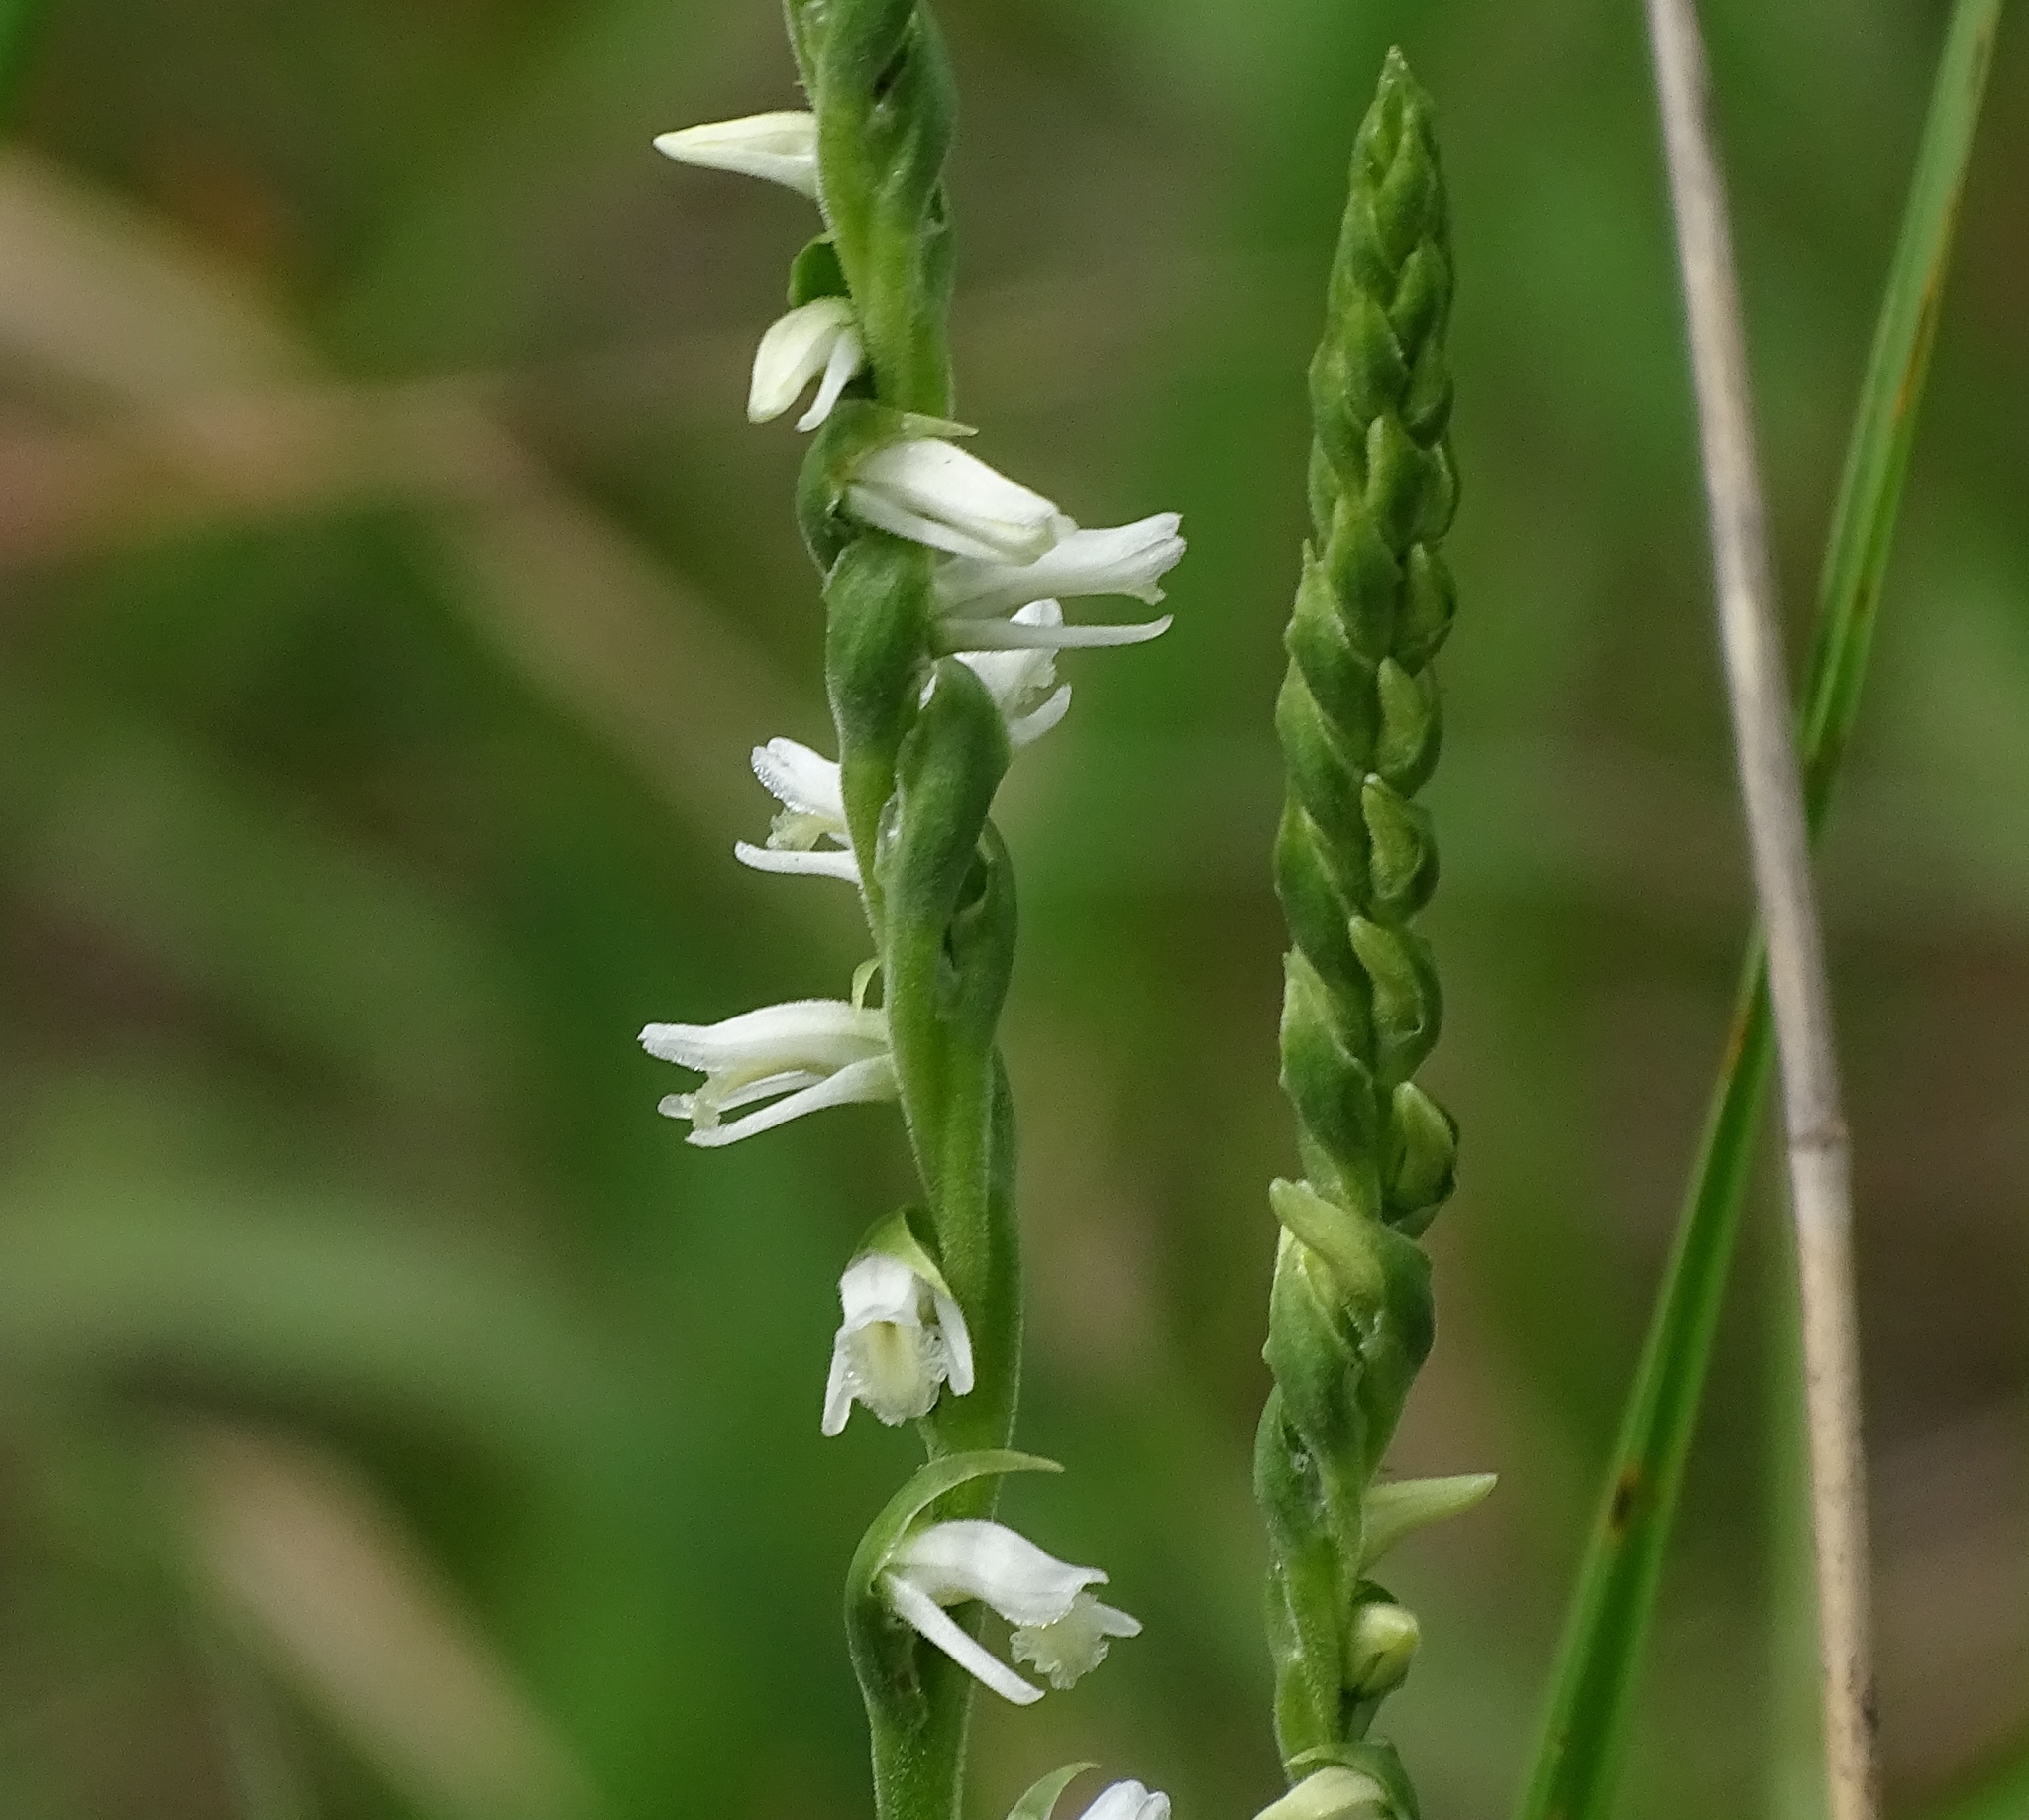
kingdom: Plantae
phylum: Tracheophyta
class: Liliopsida
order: Asparagales
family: Orchidaceae
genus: Spiranthes
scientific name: Spiranthes vernalis
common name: Spring ladies'-tresses
